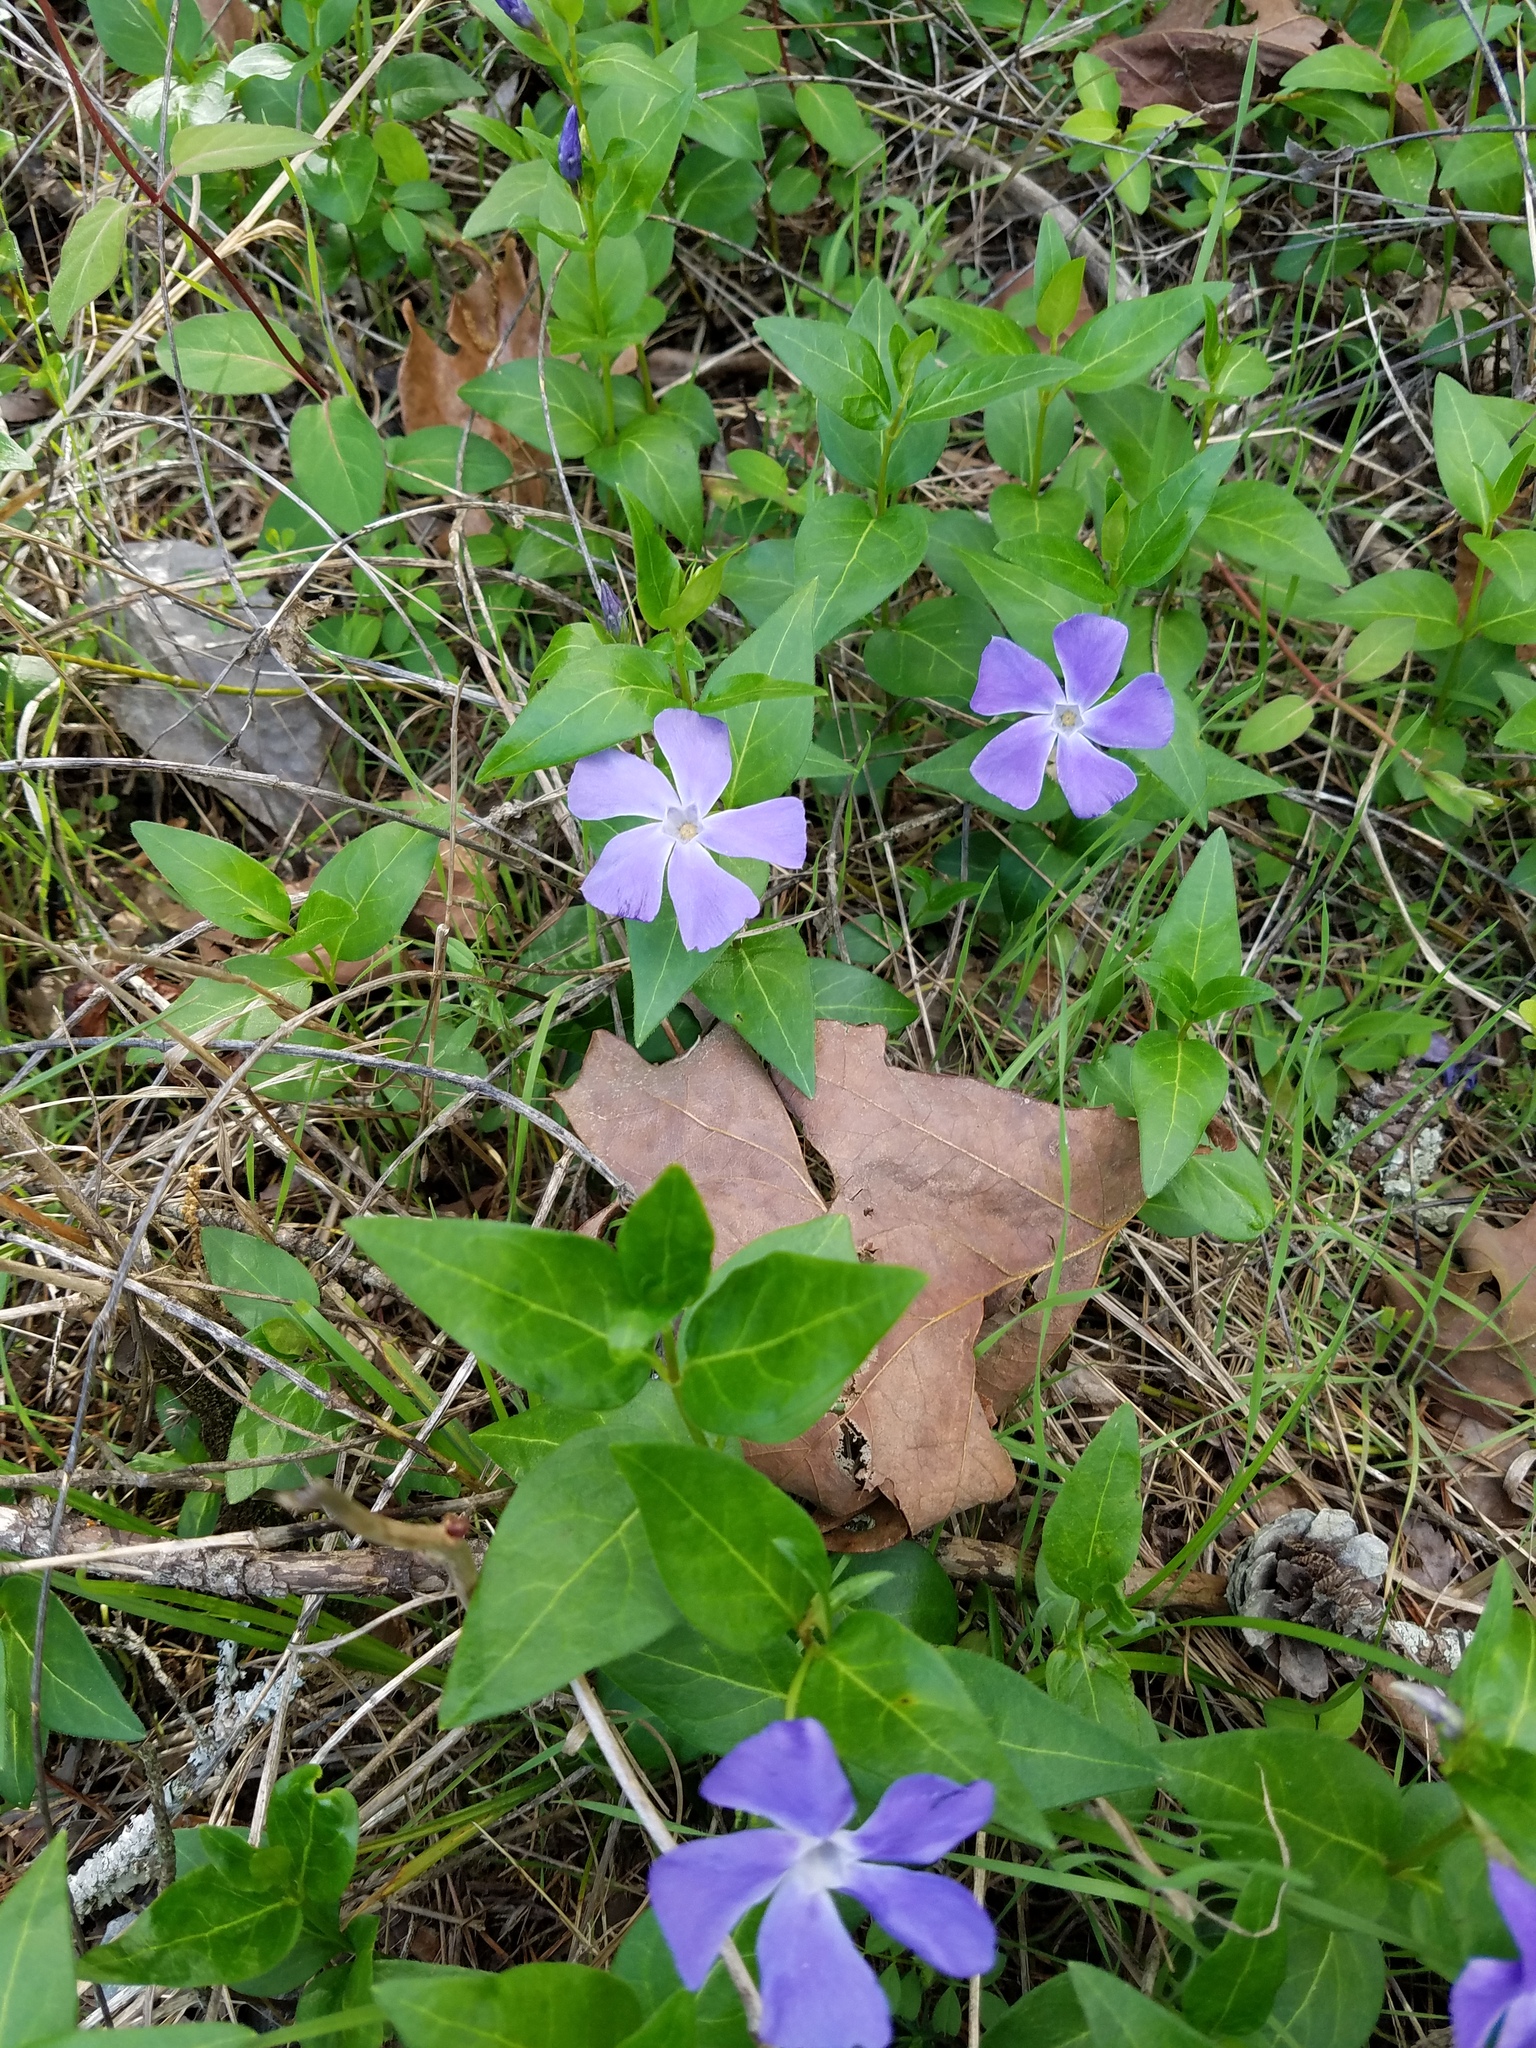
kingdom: Plantae
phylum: Tracheophyta
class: Magnoliopsida
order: Gentianales
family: Apocynaceae
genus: Vinca
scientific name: Vinca major
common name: Greater periwinkle
